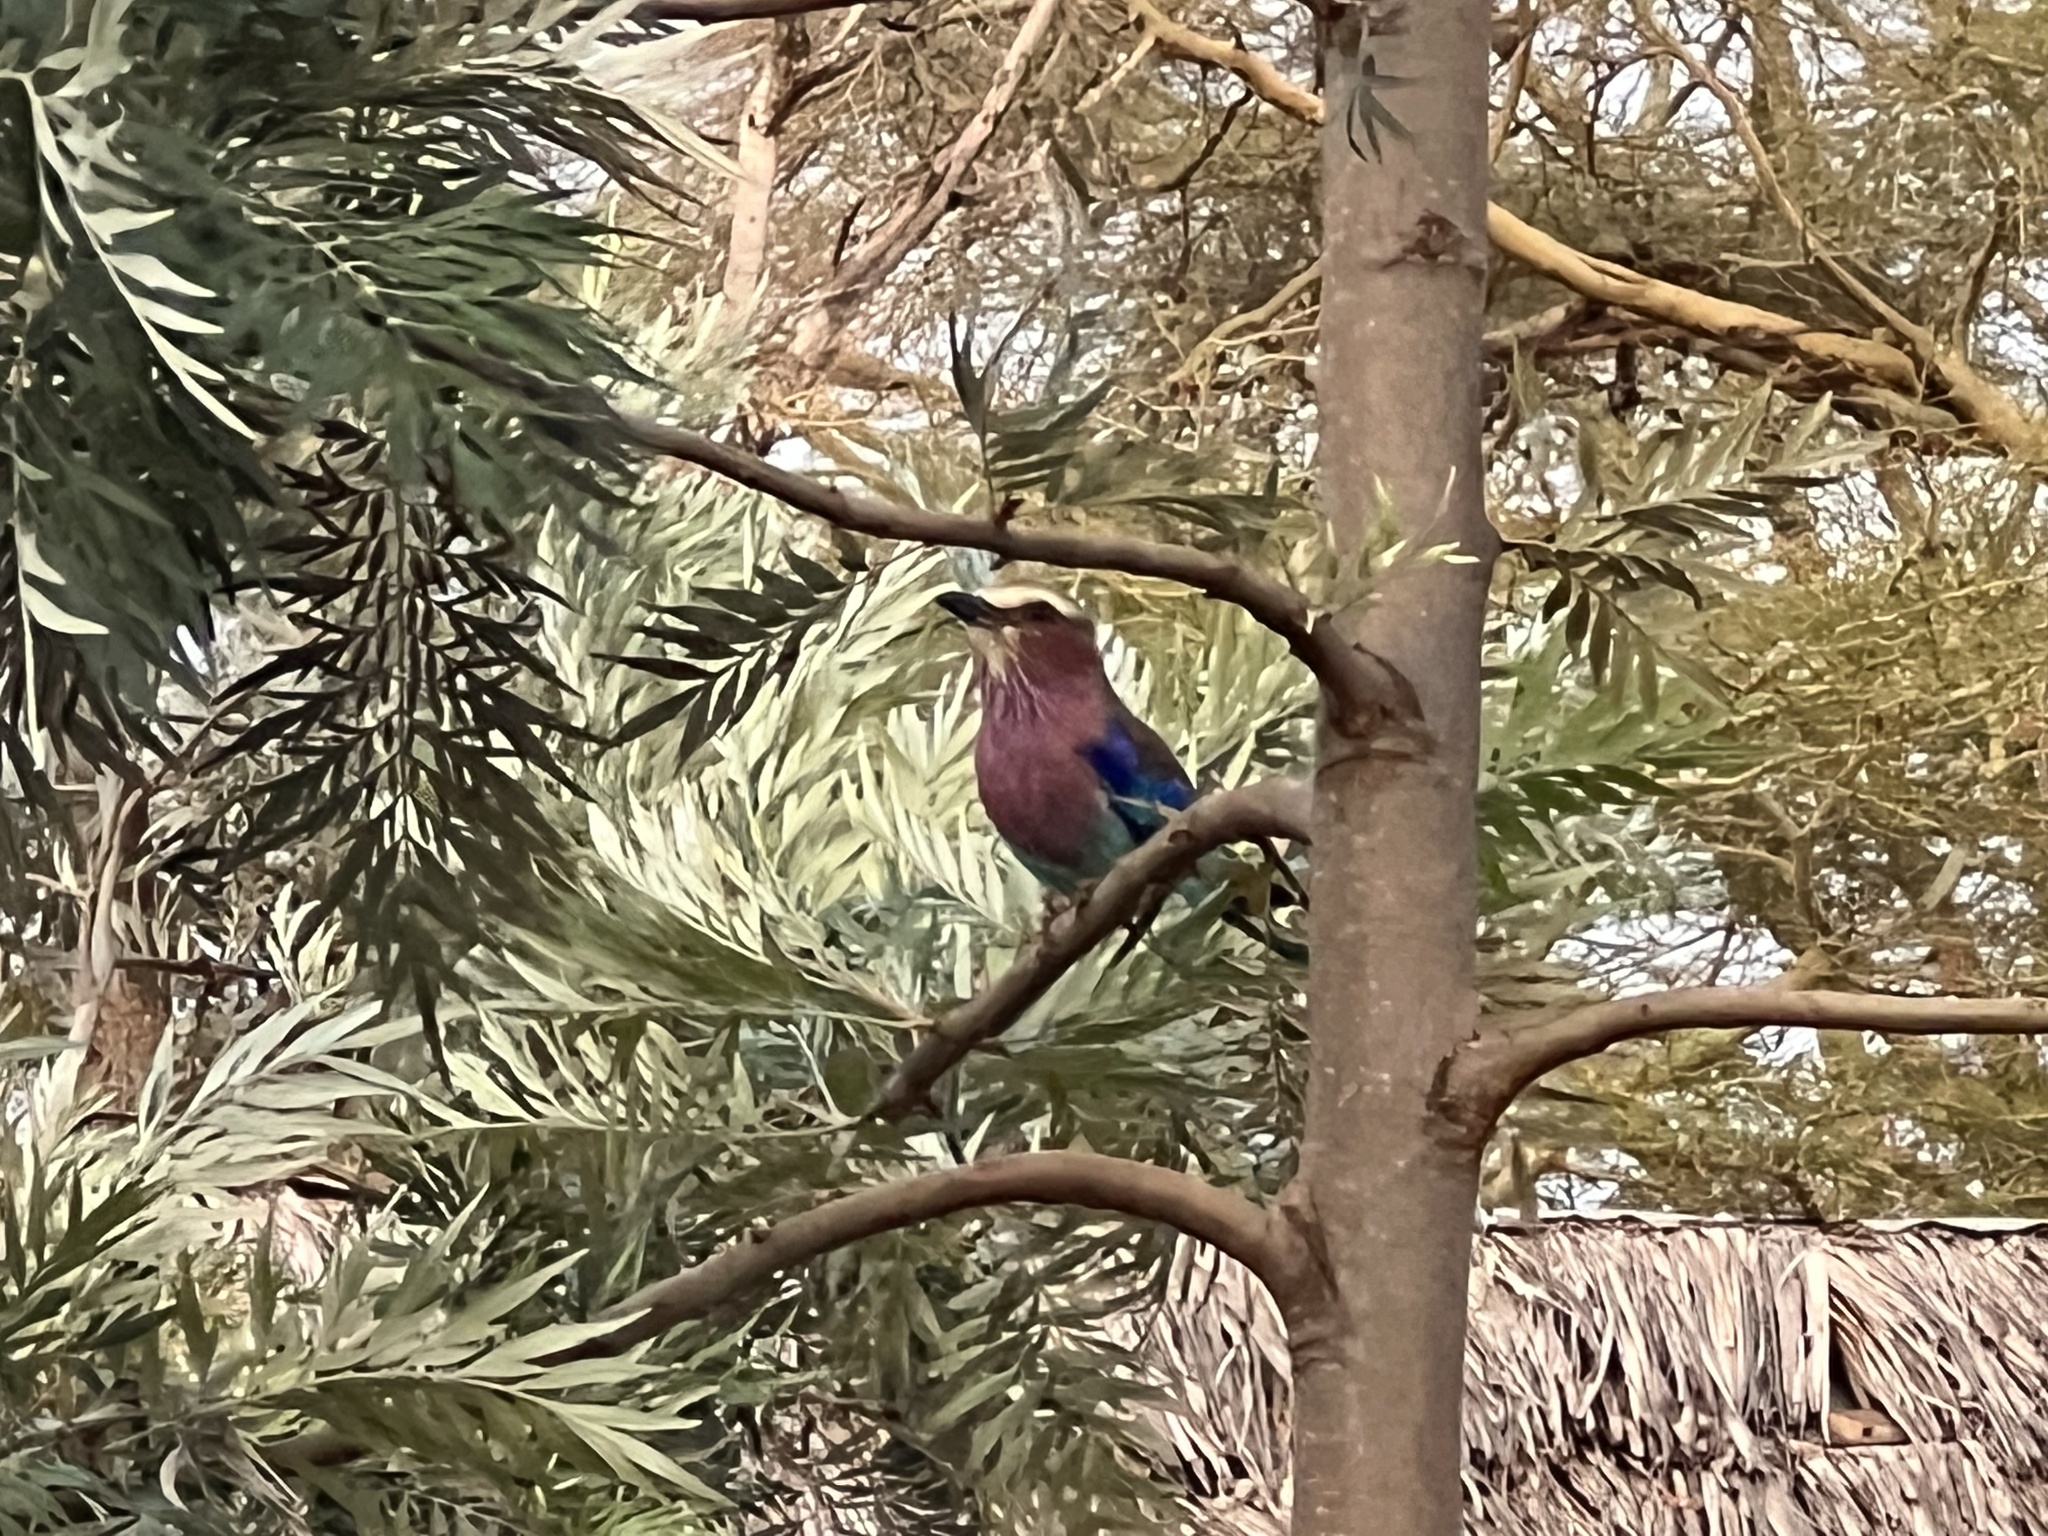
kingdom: Animalia
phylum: Chordata
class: Aves
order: Coraciiformes
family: Coraciidae
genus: Coracias
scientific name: Coracias caudatus
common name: Lilac-breasted roller
